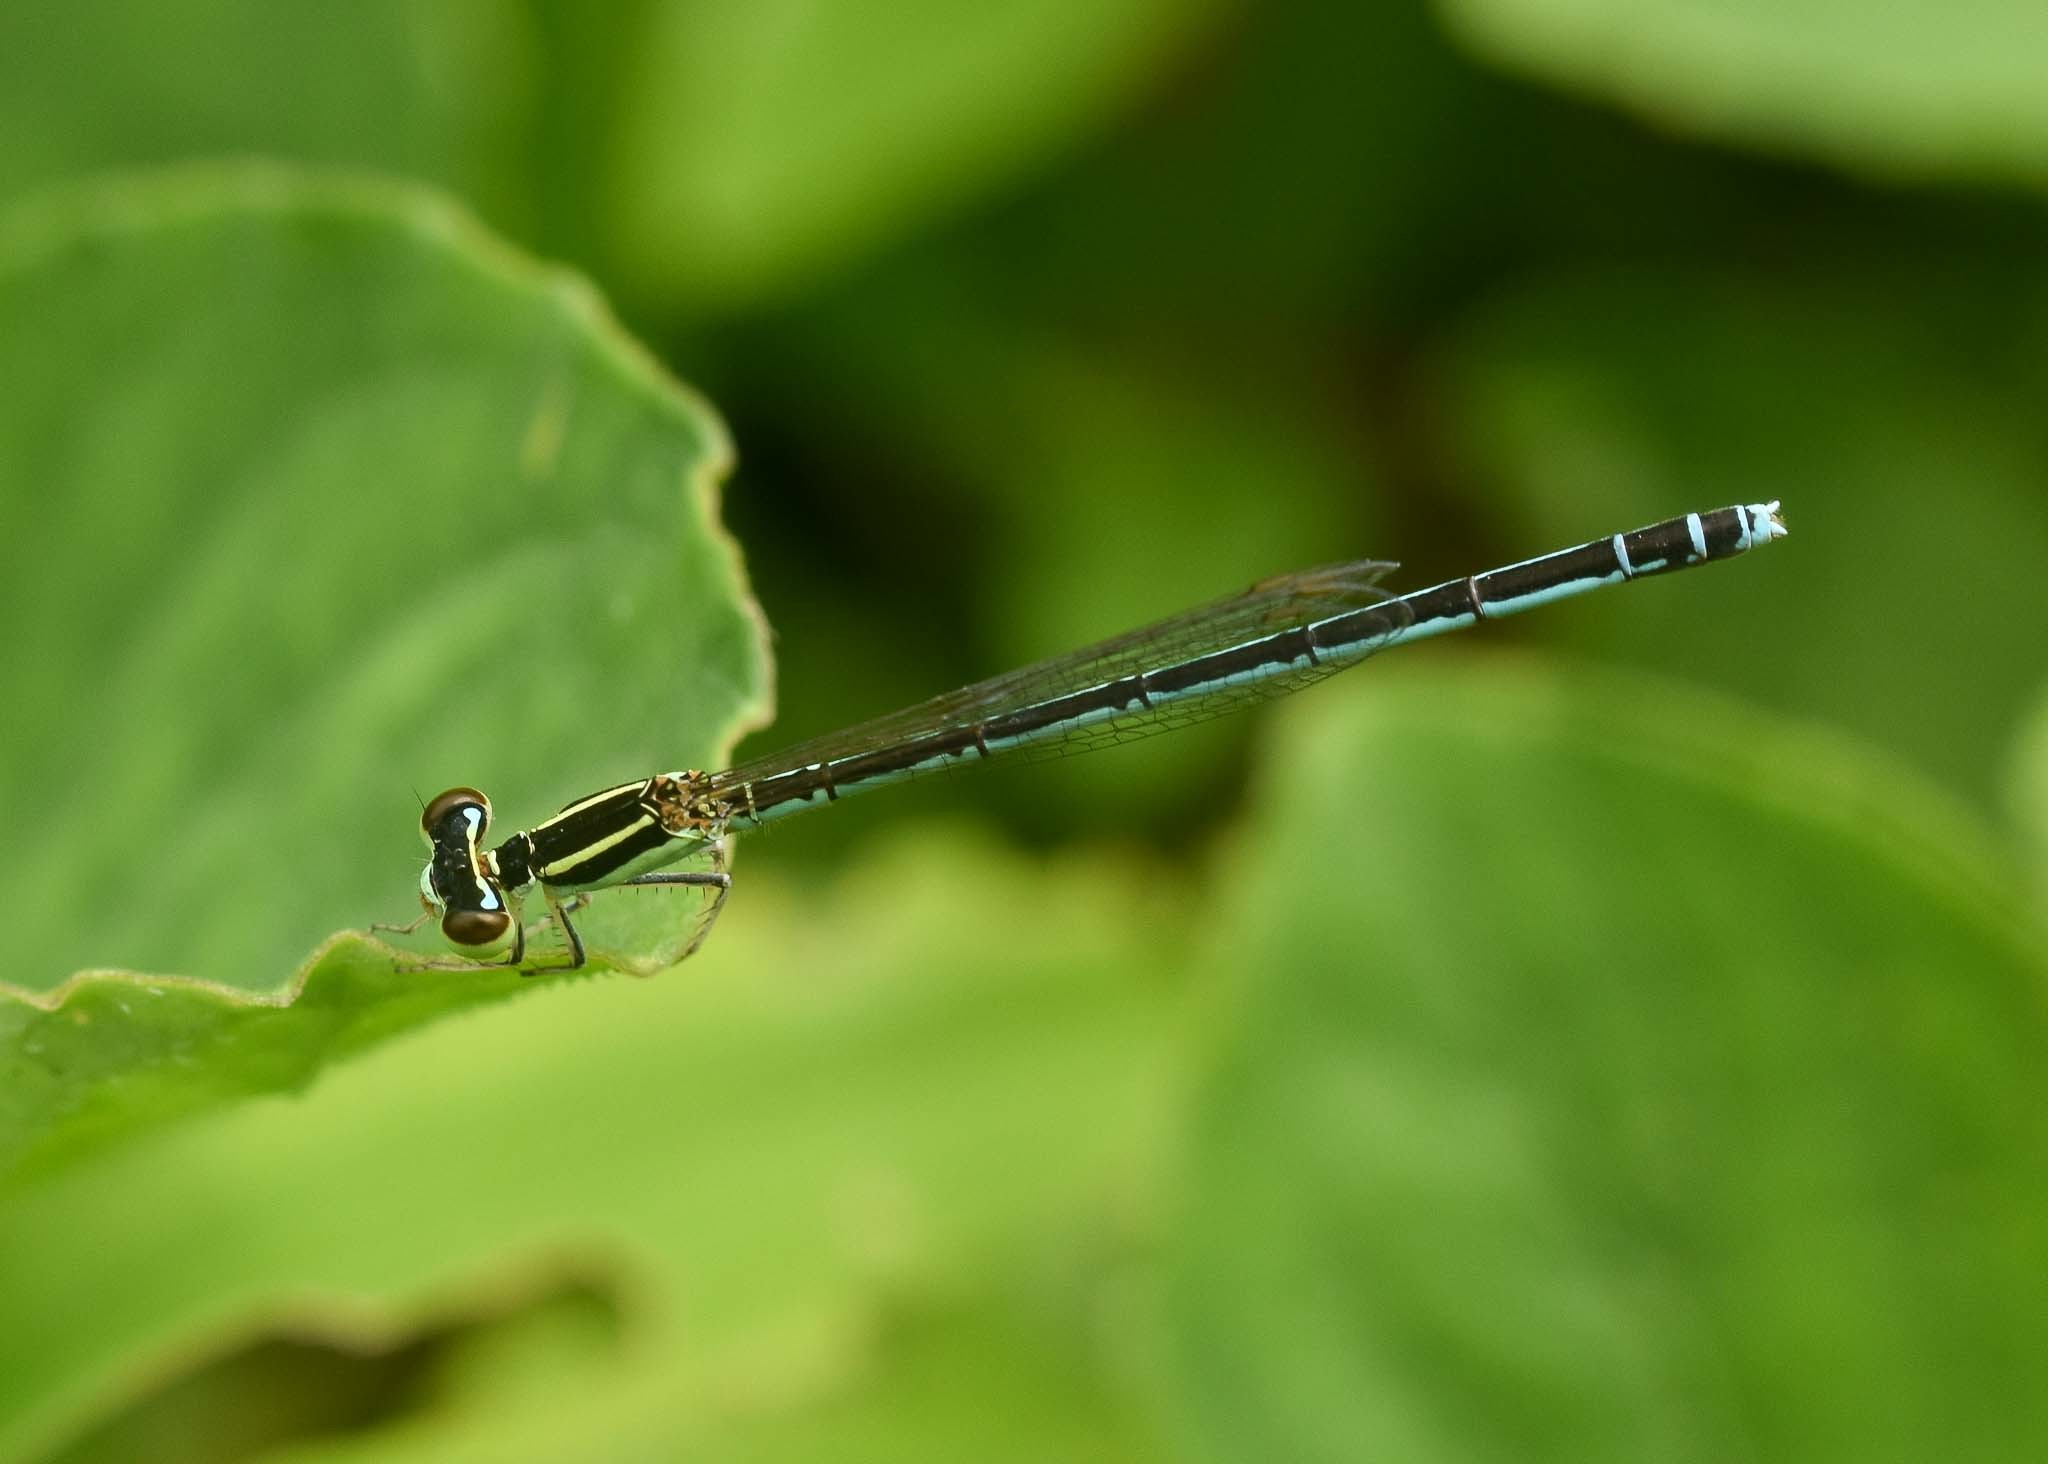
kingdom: Animalia
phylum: Arthropoda
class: Insecta
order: Odonata
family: Coenagrionidae
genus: Agriocnemis
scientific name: Agriocnemis lacteola
